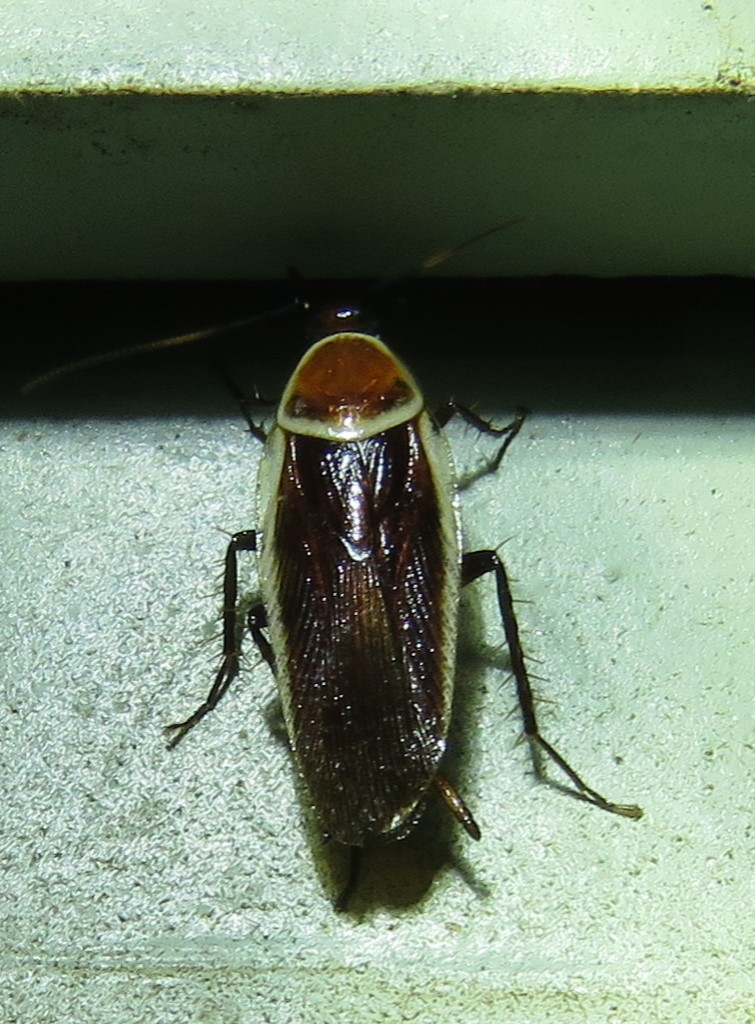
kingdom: Animalia
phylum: Arthropoda
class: Insecta
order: Blattodea
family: Ectobiidae
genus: Pseudomops
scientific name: Pseudomops septentrionalis
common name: Pale-bordered field cockroach
